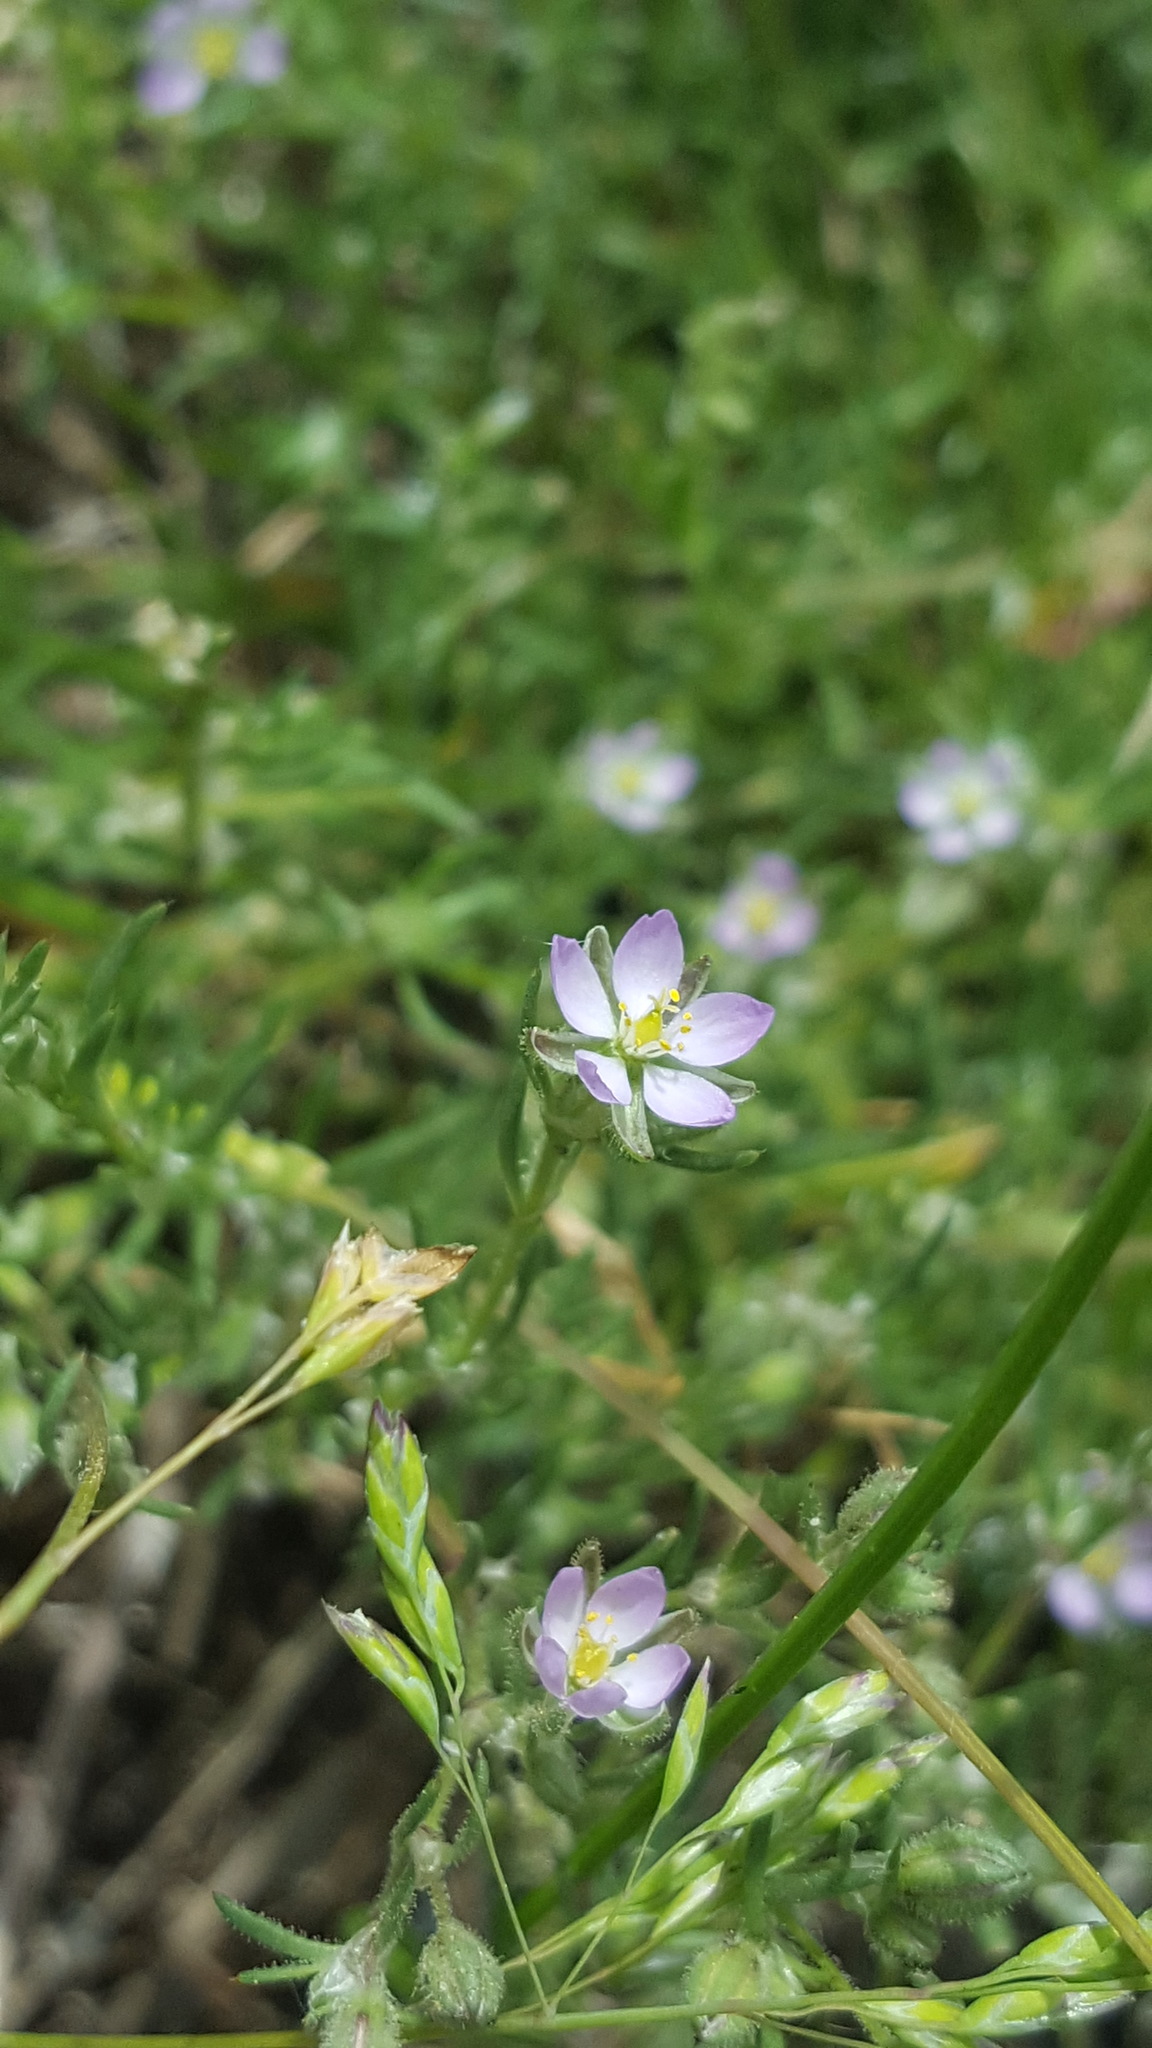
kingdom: Plantae
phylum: Tracheophyta
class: Magnoliopsida
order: Caryophyllales
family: Caryophyllaceae
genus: Spergularia
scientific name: Spergularia rubra
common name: Red sand-spurrey
